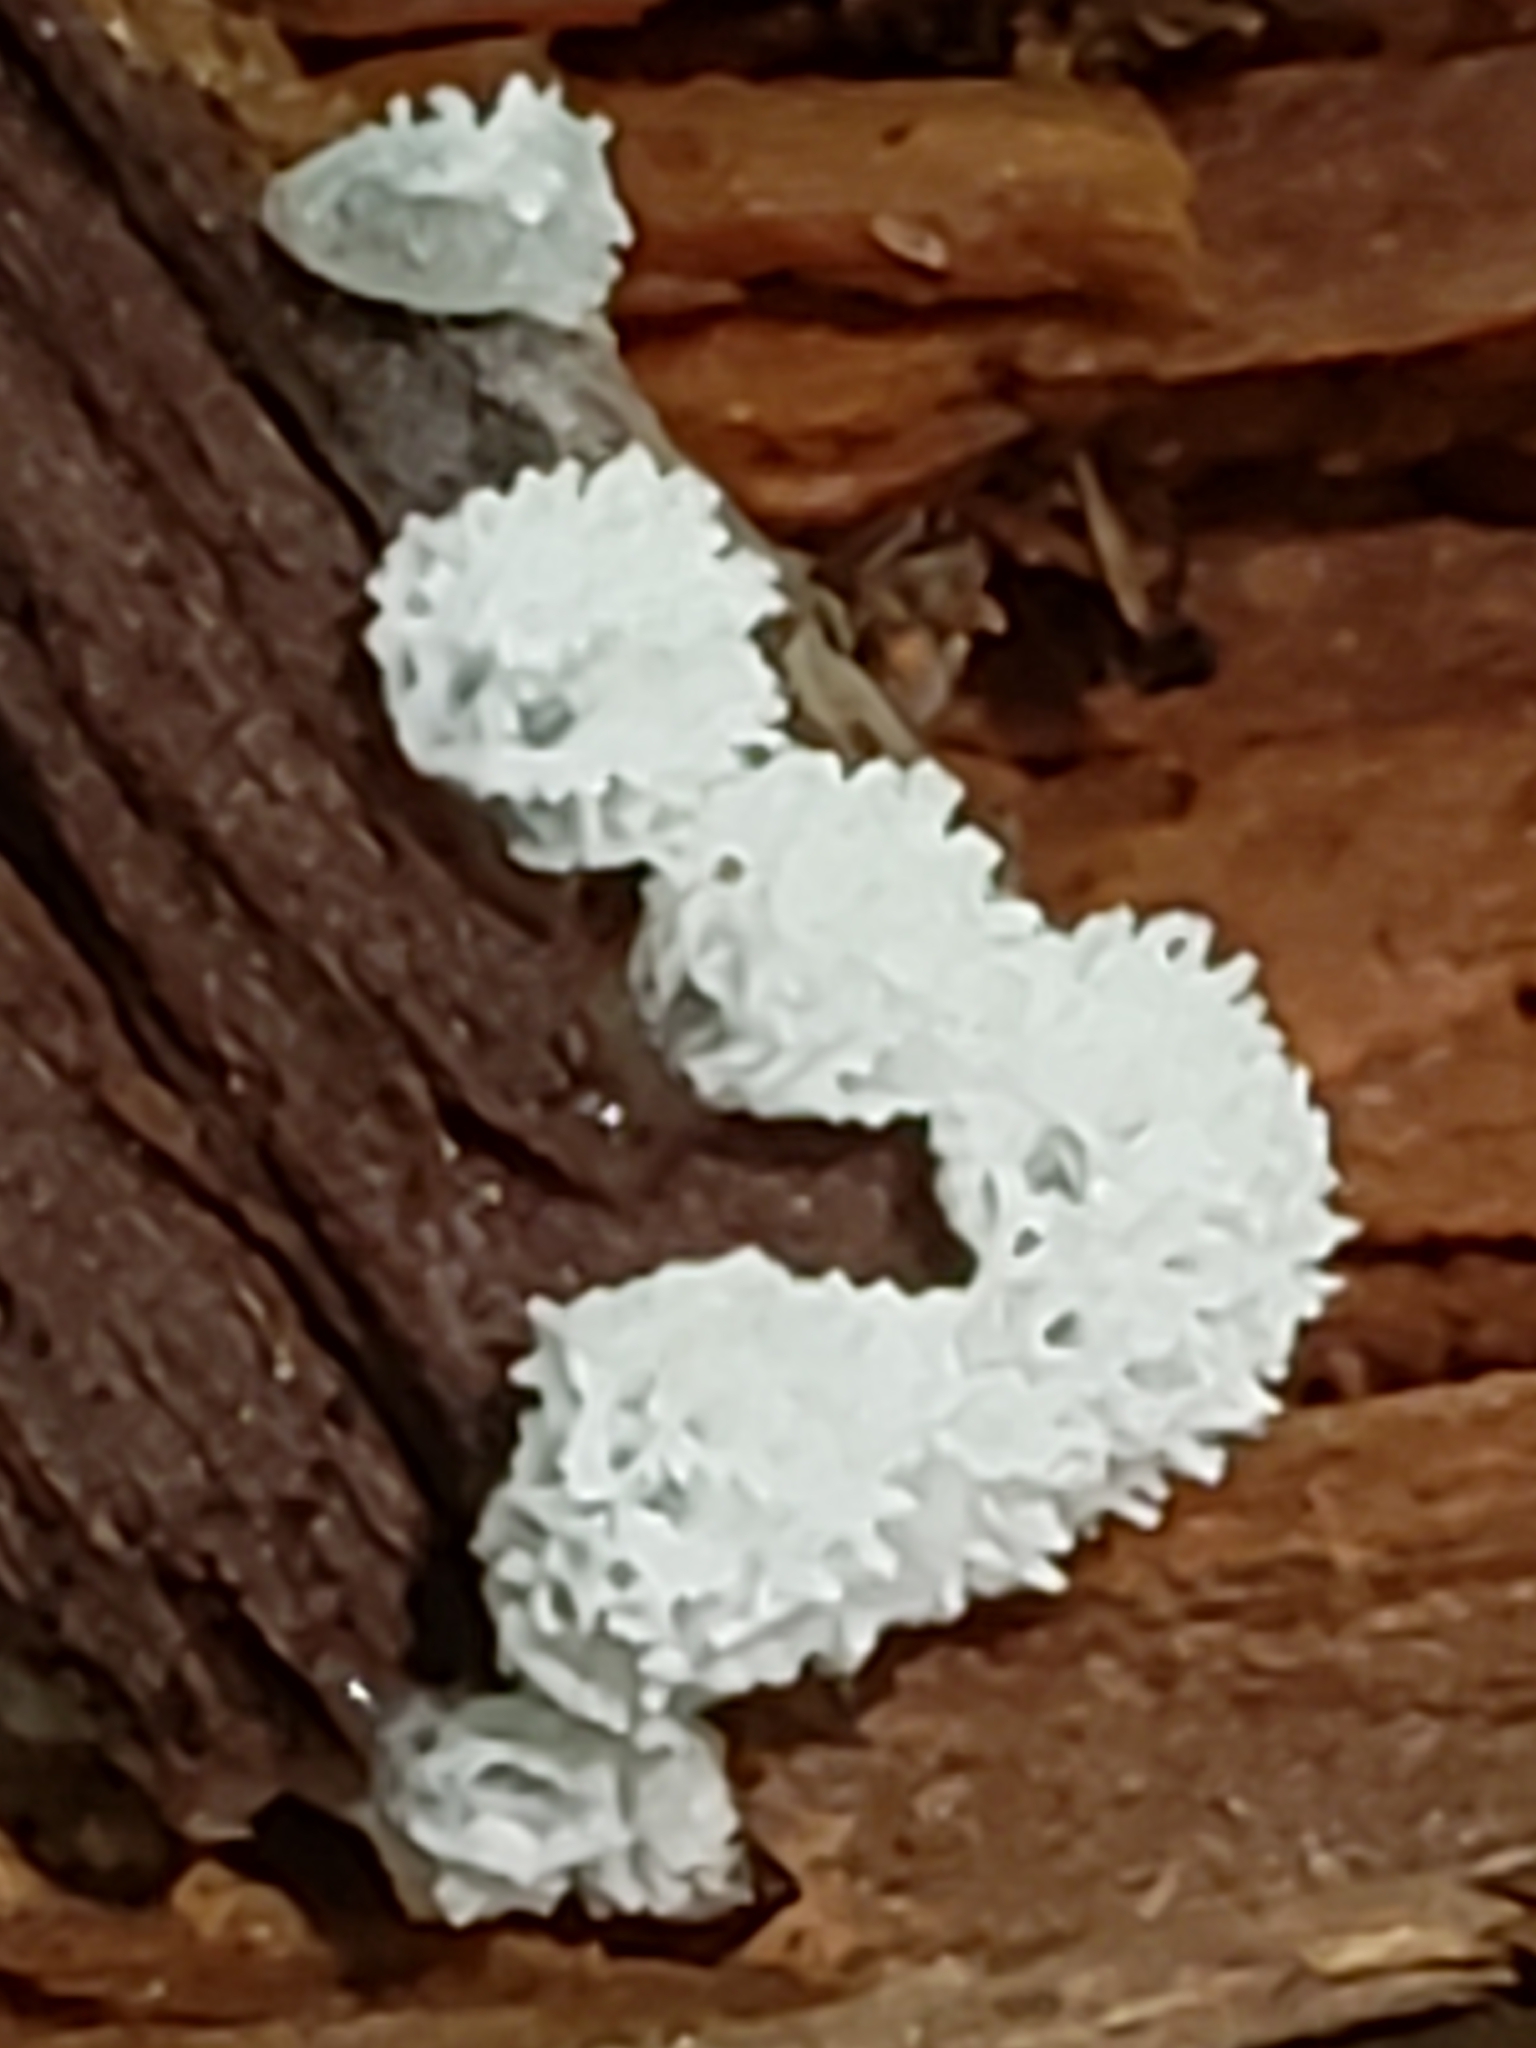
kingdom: Protozoa
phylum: Mycetozoa
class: Protosteliomycetes
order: Ceratiomyxales
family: Ceratiomyxaceae
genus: Ceratiomyxa
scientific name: Ceratiomyxa fruticulosa
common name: Honeycomb coral slime mold
